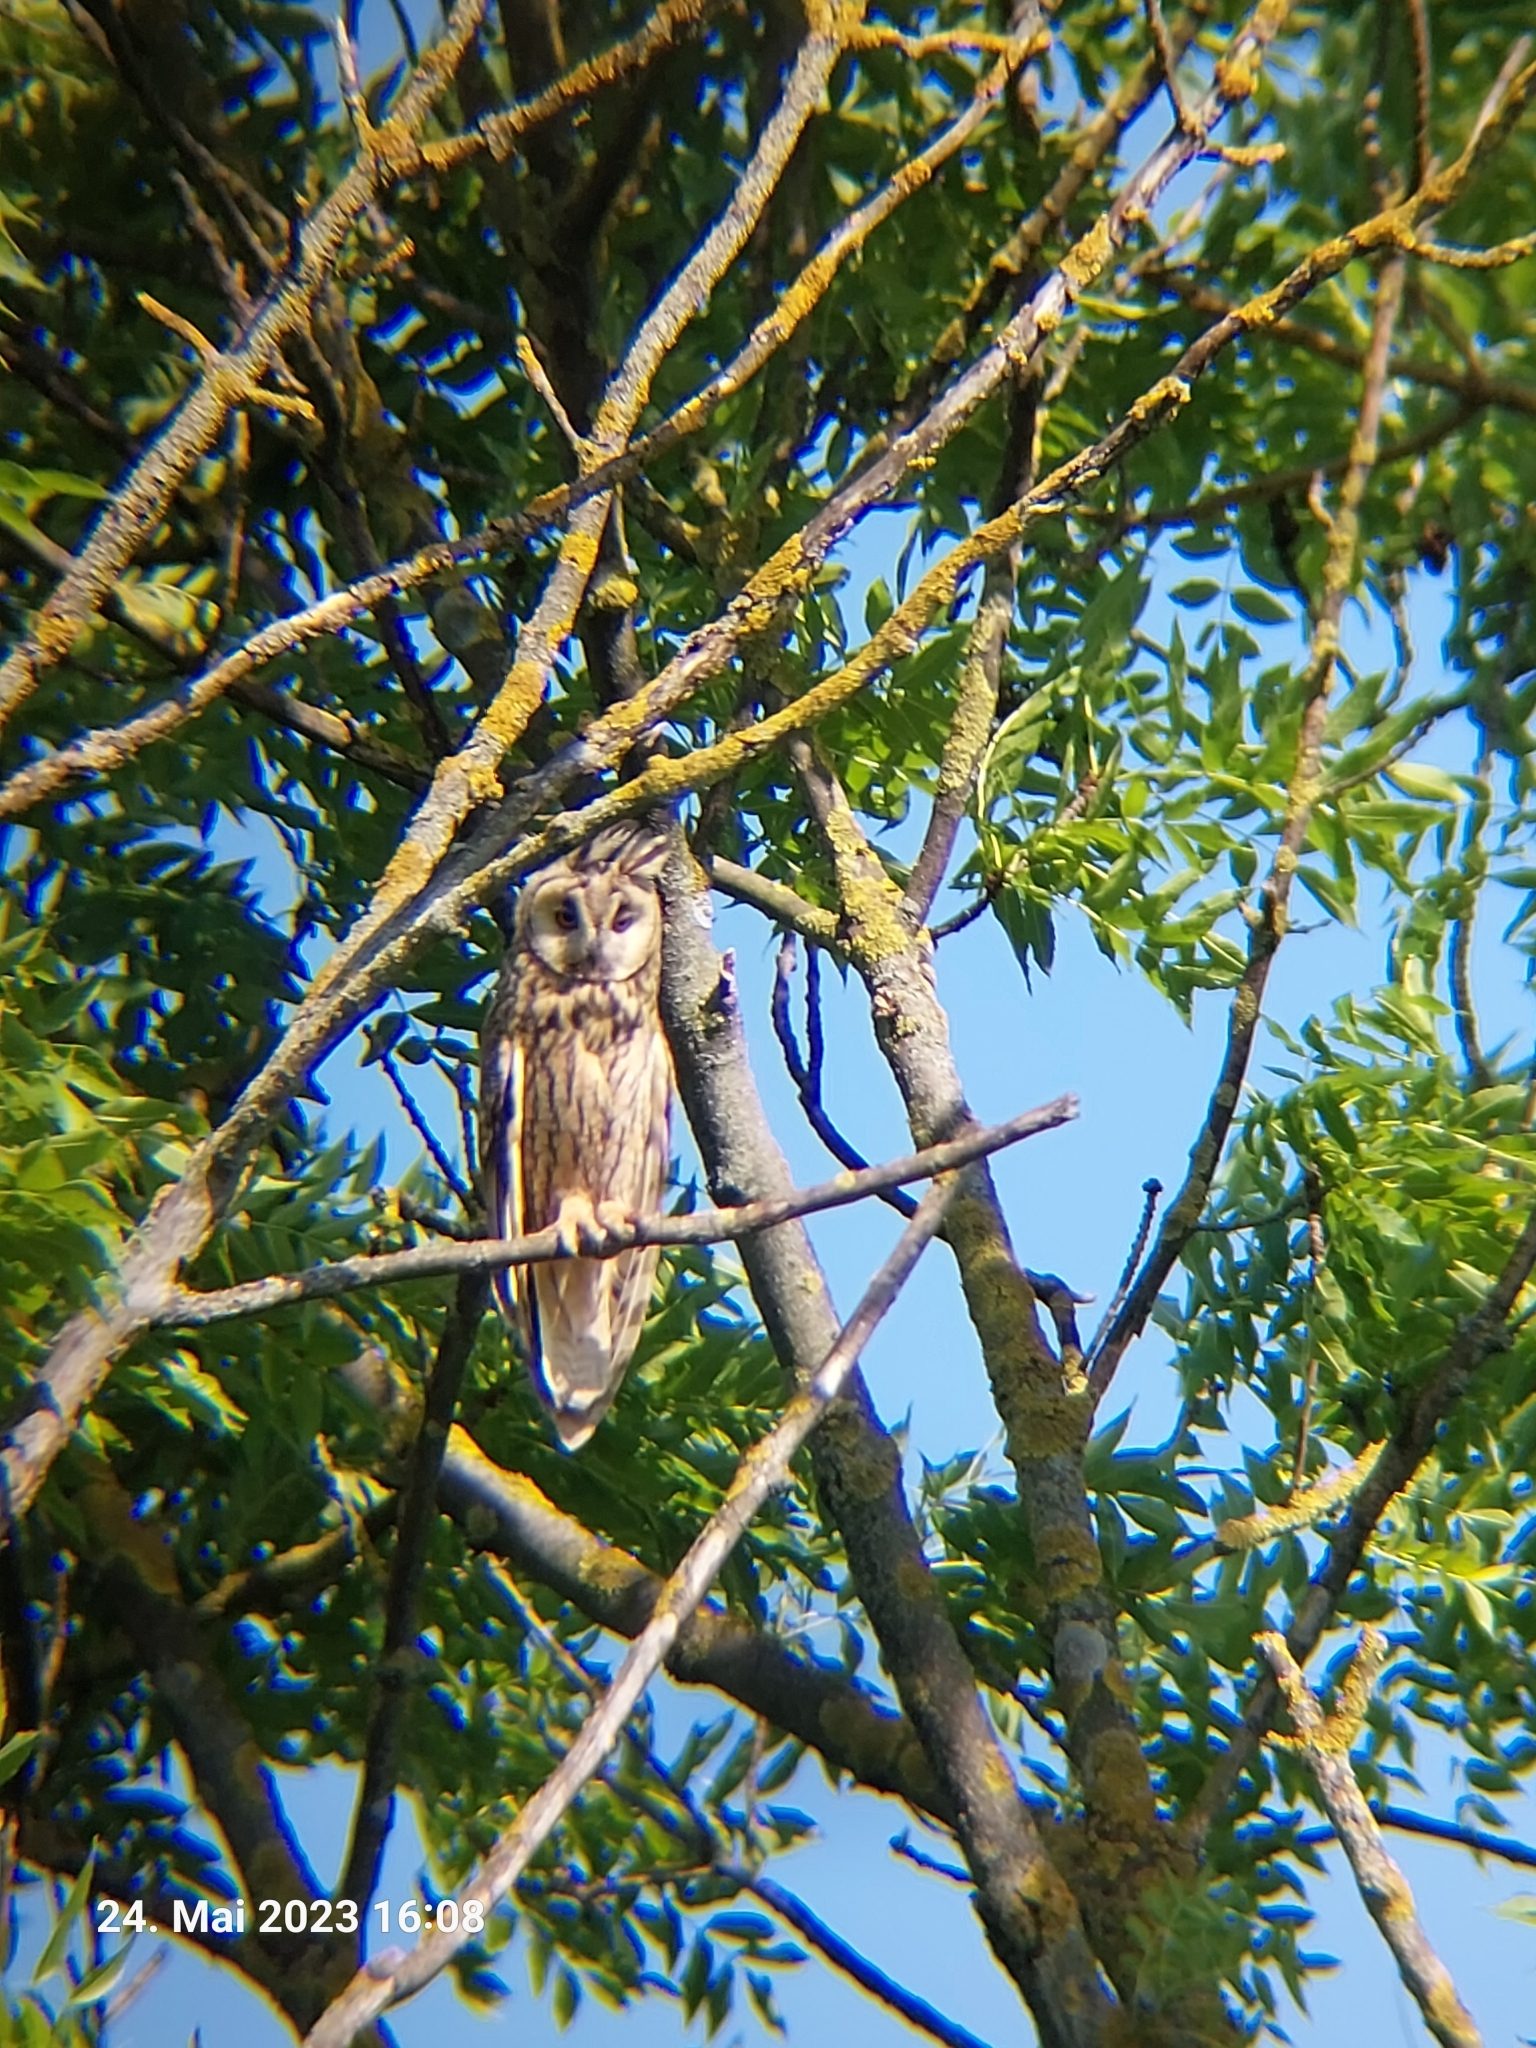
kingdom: Animalia
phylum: Chordata
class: Aves
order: Strigiformes
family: Strigidae
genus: Asio
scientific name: Asio otus
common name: Long-eared owl
